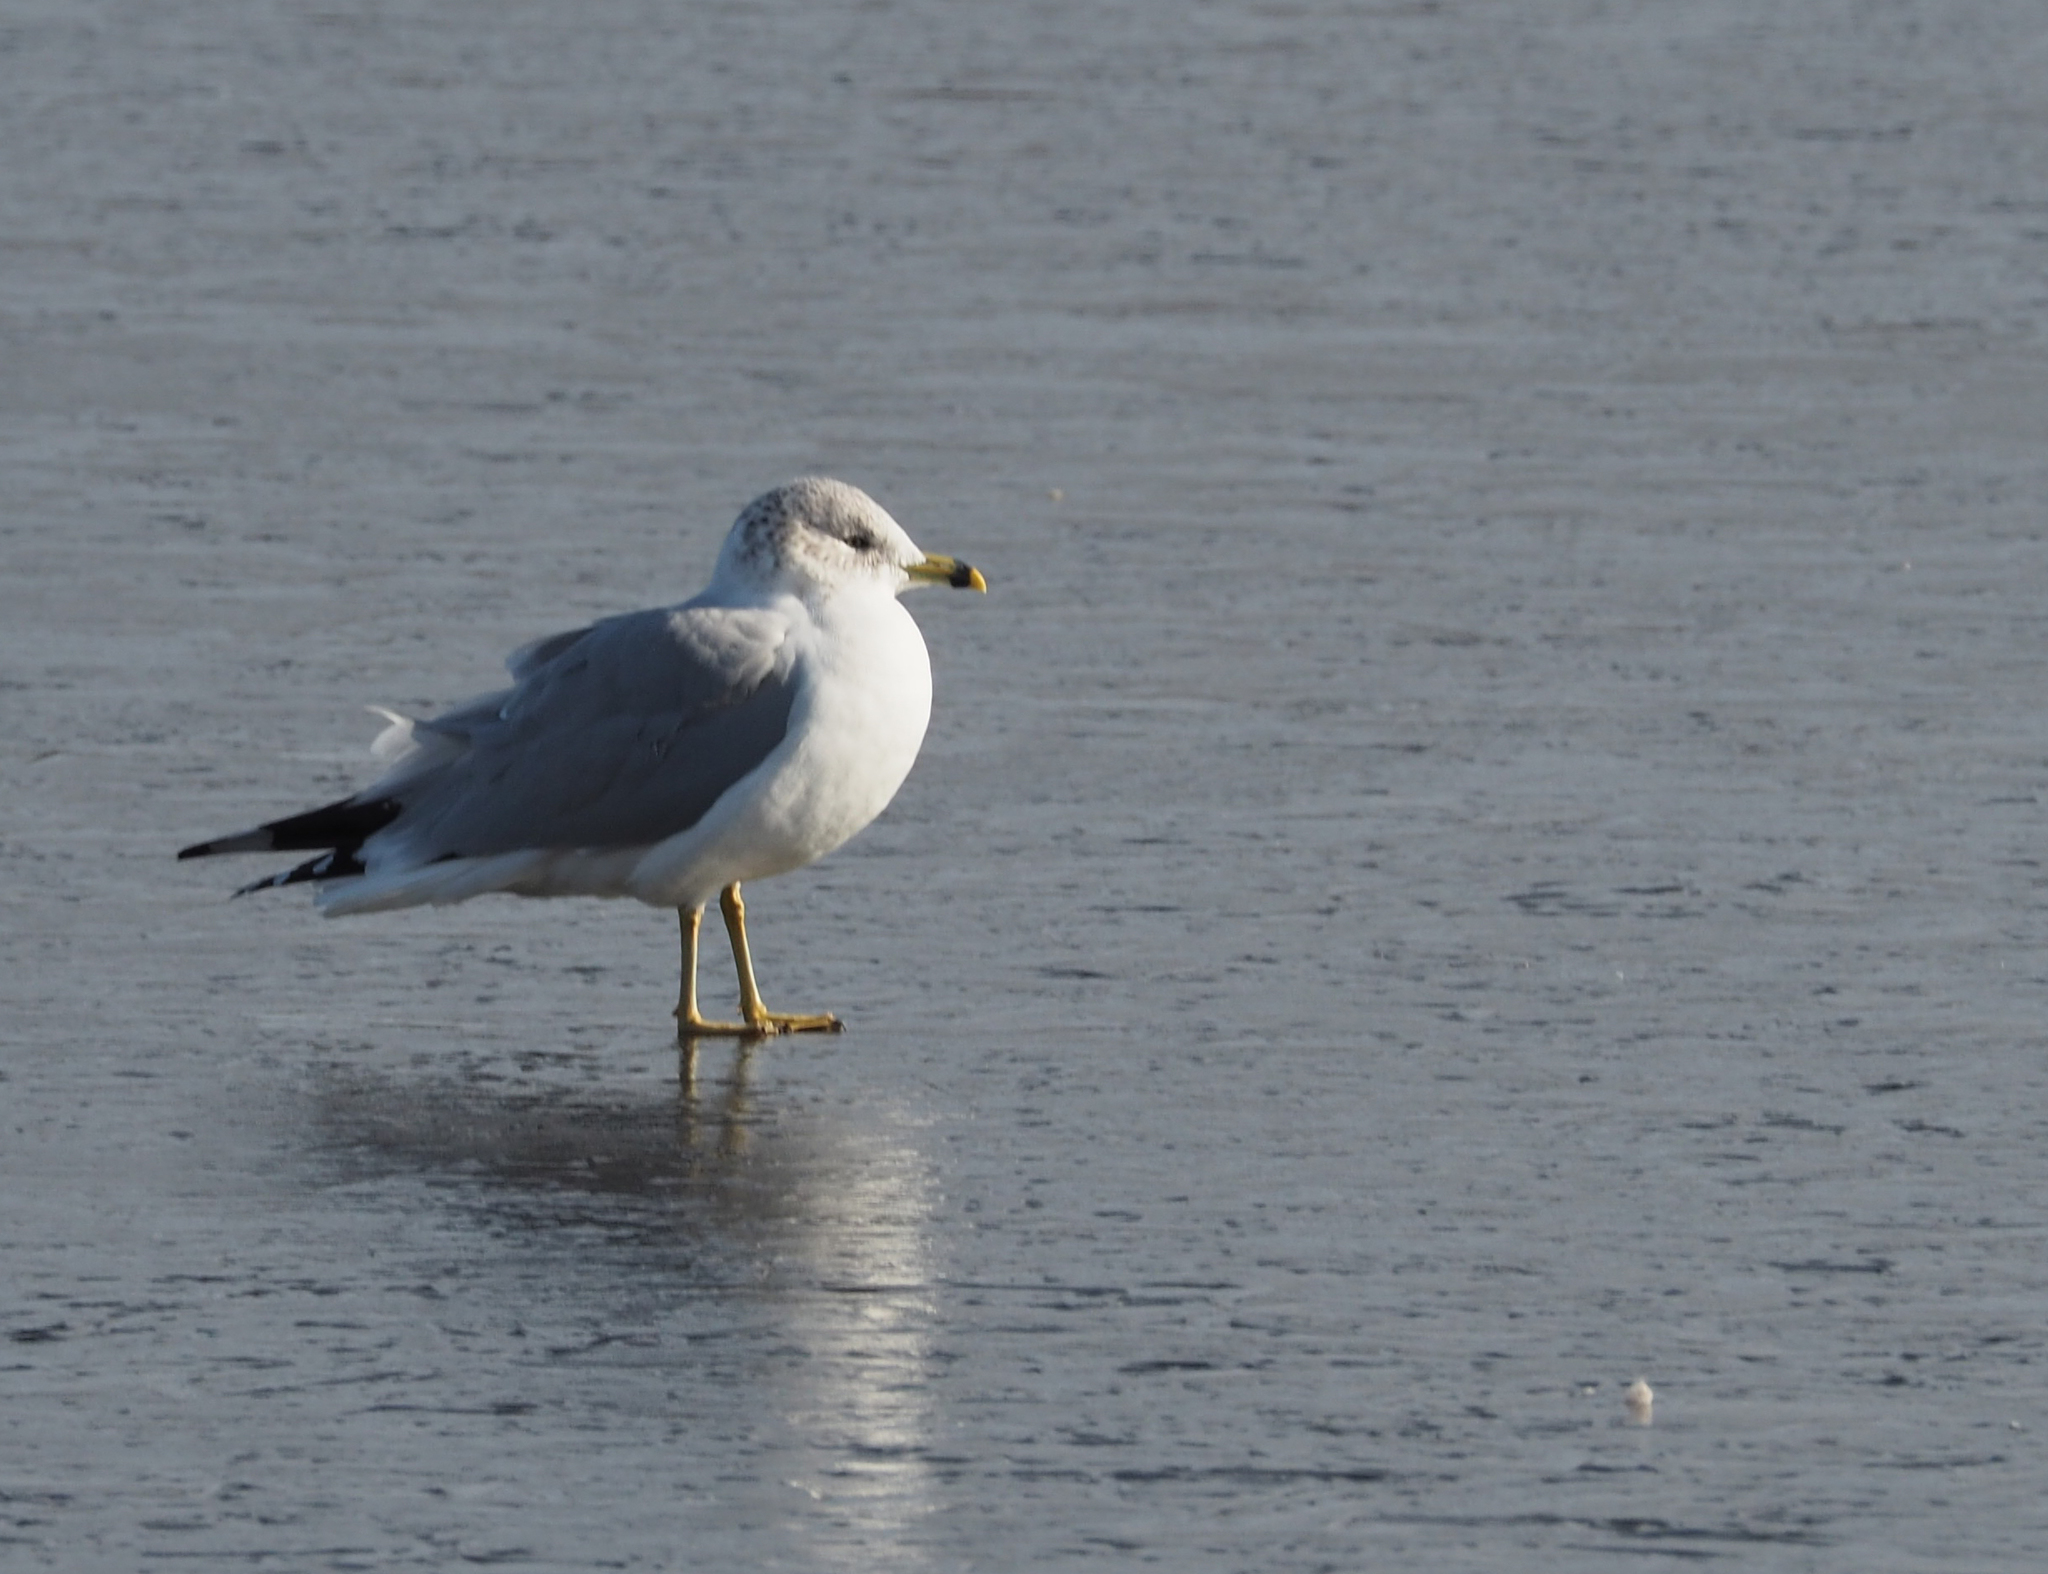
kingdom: Animalia
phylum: Chordata
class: Aves
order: Charadriiformes
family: Laridae
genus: Larus
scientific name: Larus delawarensis
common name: Ring-billed gull
